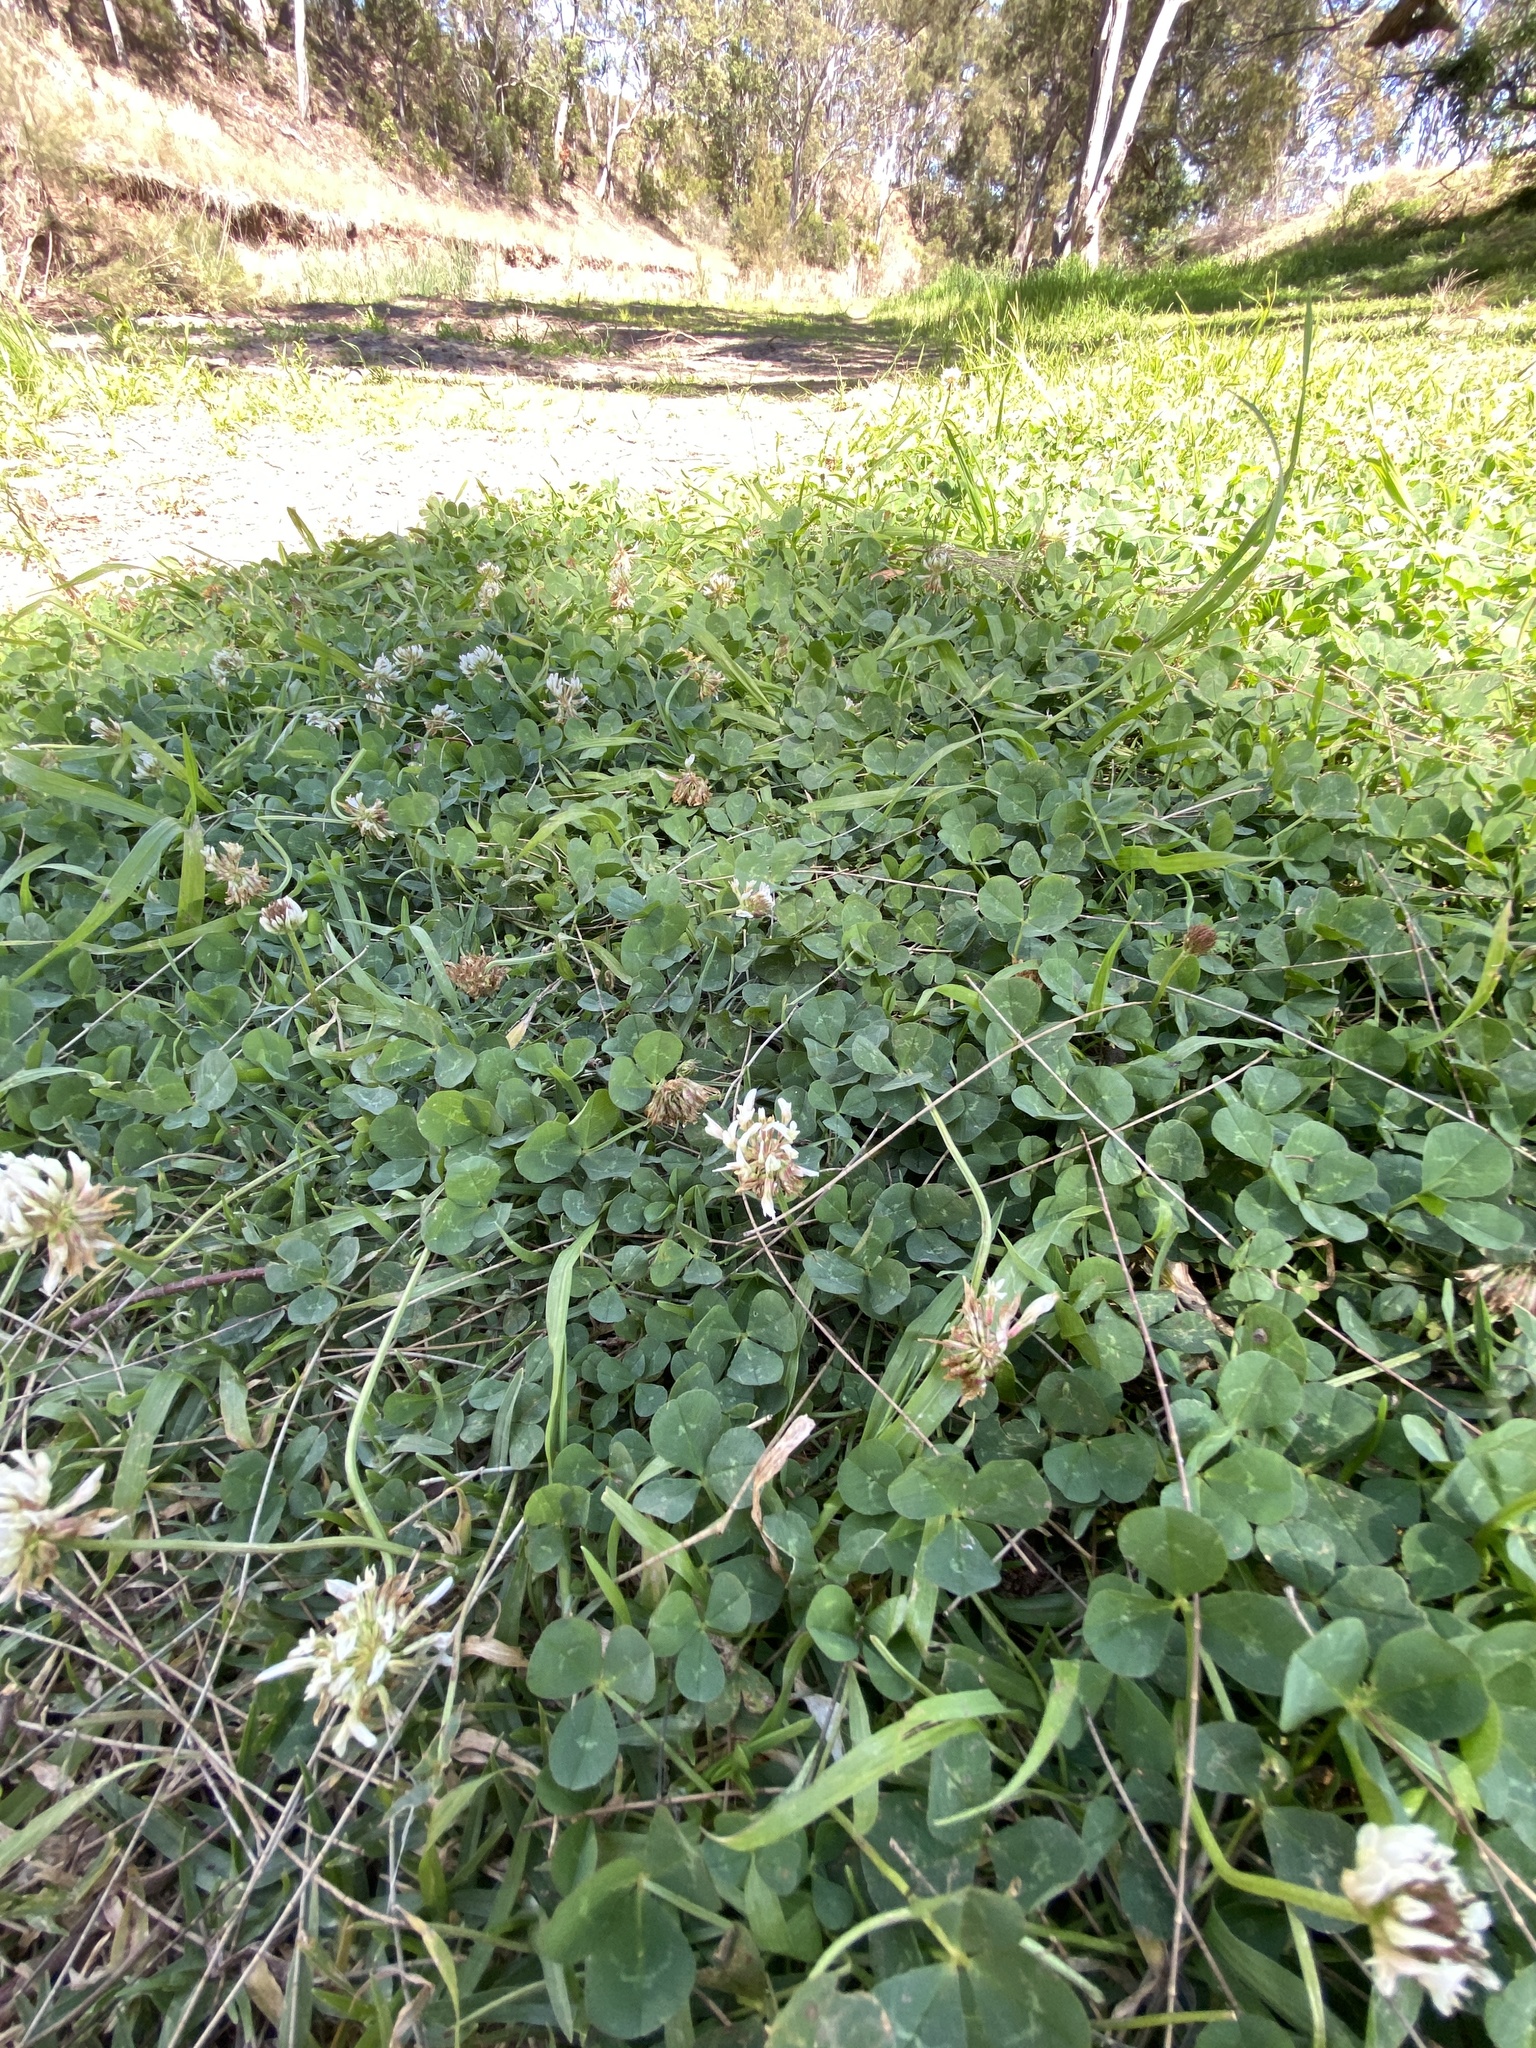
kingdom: Plantae
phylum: Tracheophyta
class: Magnoliopsida
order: Fabales
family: Fabaceae
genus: Trifolium
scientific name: Trifolium repens
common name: White clover
